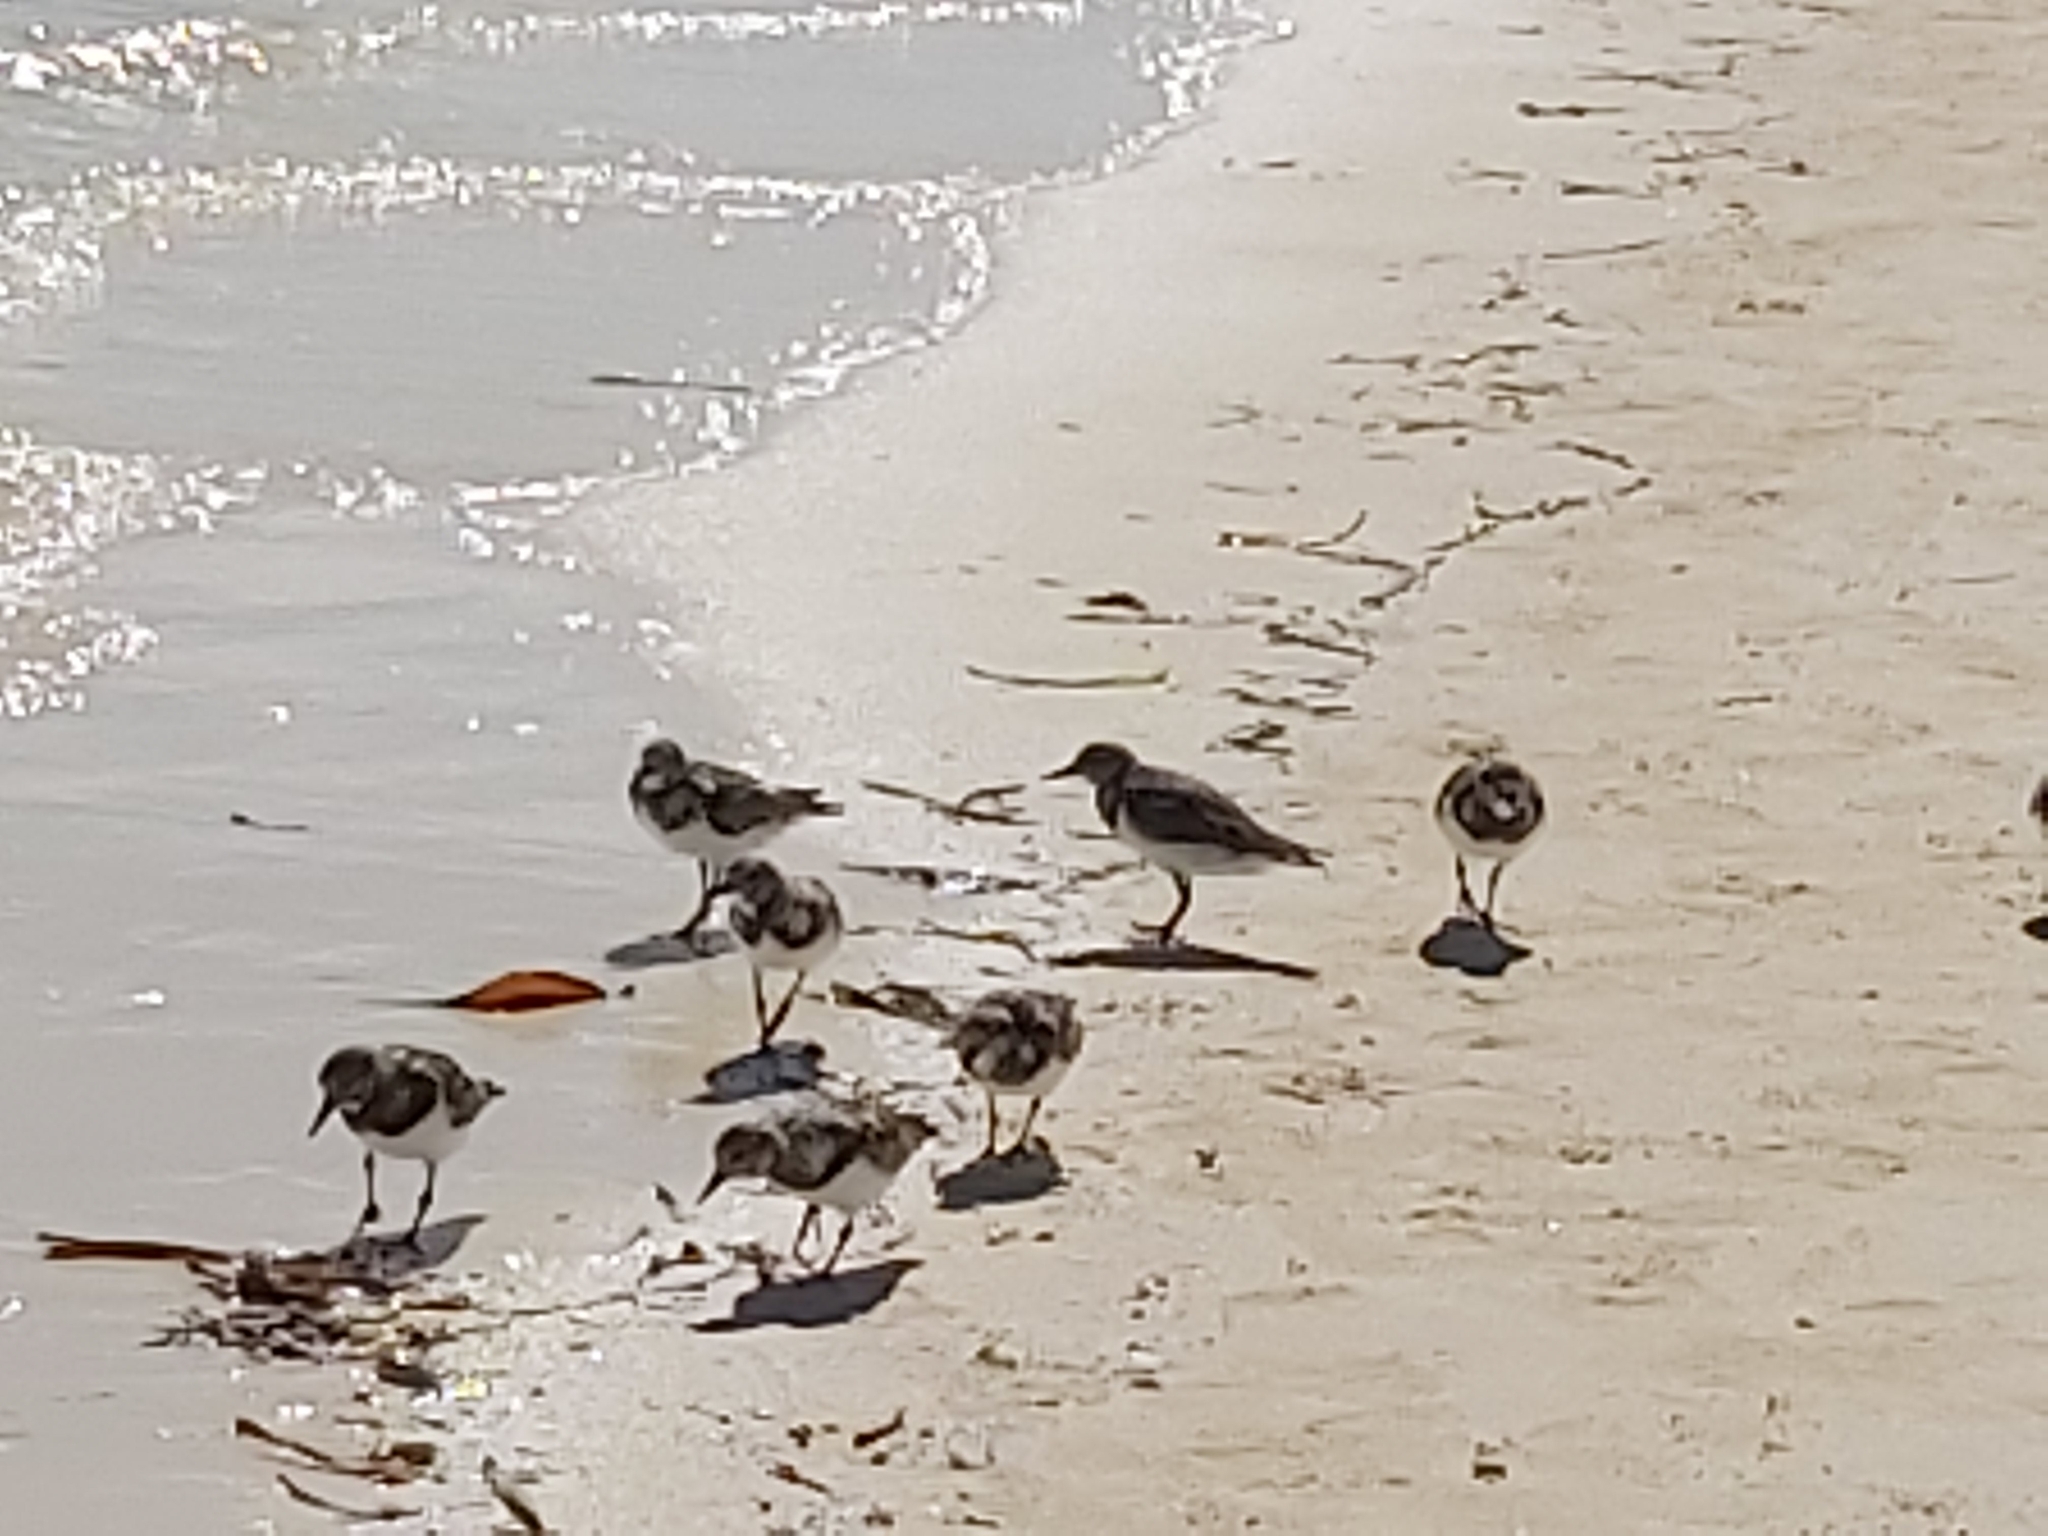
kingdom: Animalia
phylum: Chordata
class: Aves
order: Charadriiformes
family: Scolopacidae
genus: Arenaria
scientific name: Arenaria interpres
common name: Ruddy turnstone
